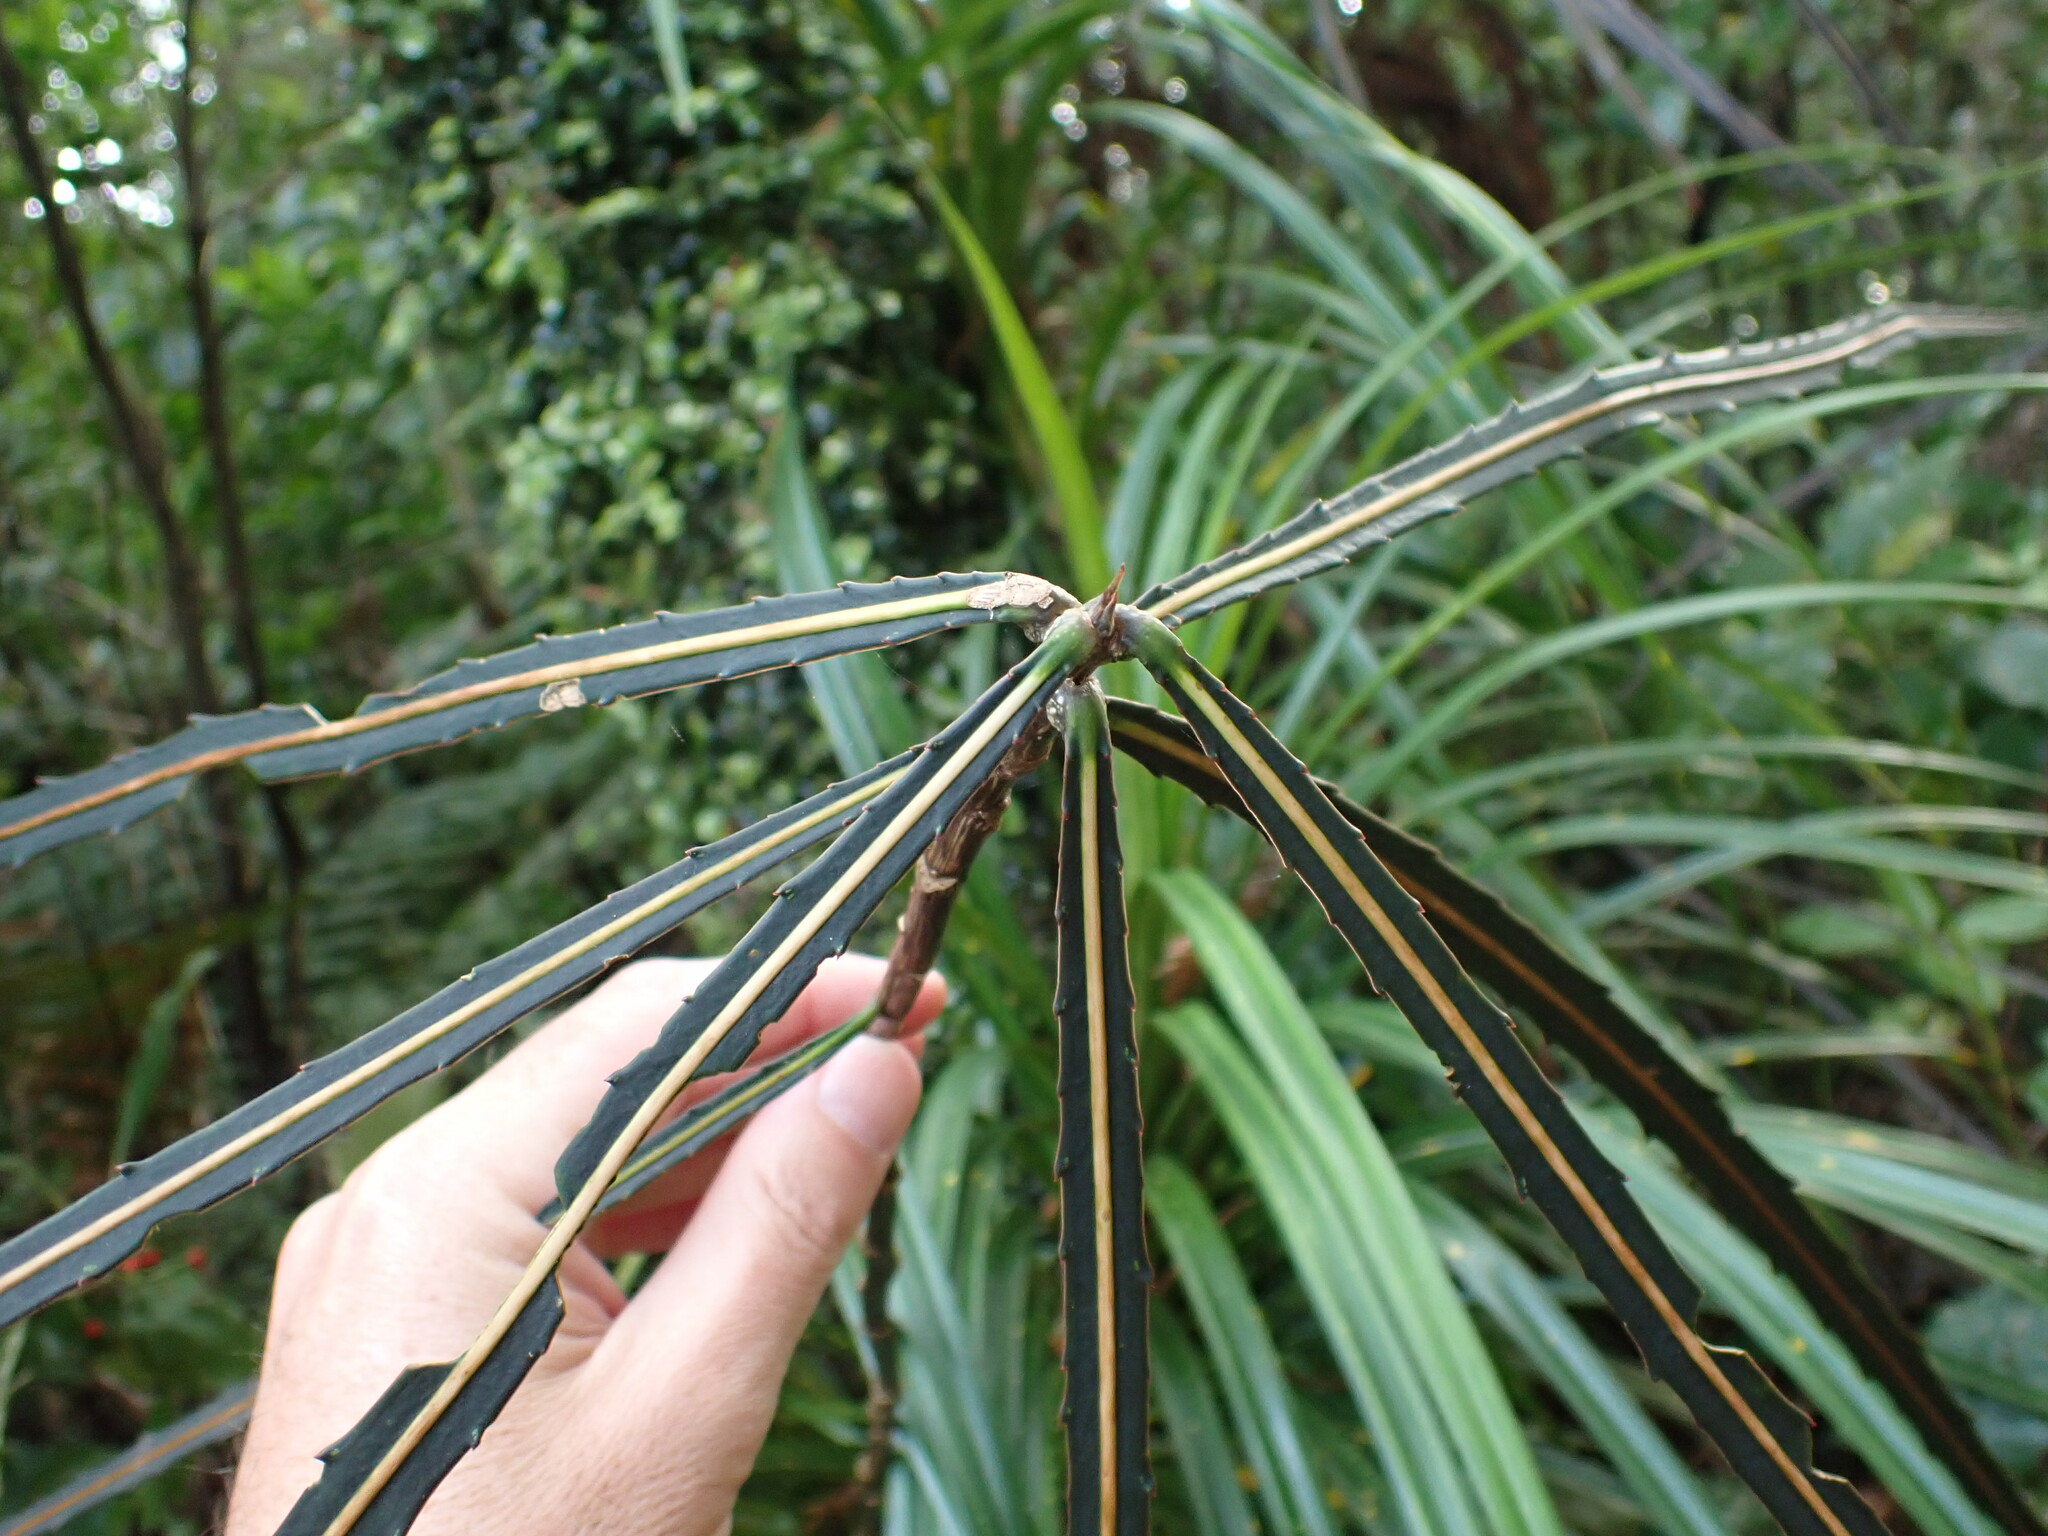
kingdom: Plantae
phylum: Tracheophyta
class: Magnoliopsida
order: Apiales
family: Araliaceae
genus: Pseudopanax
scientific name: Pseudopanax crassifolius
